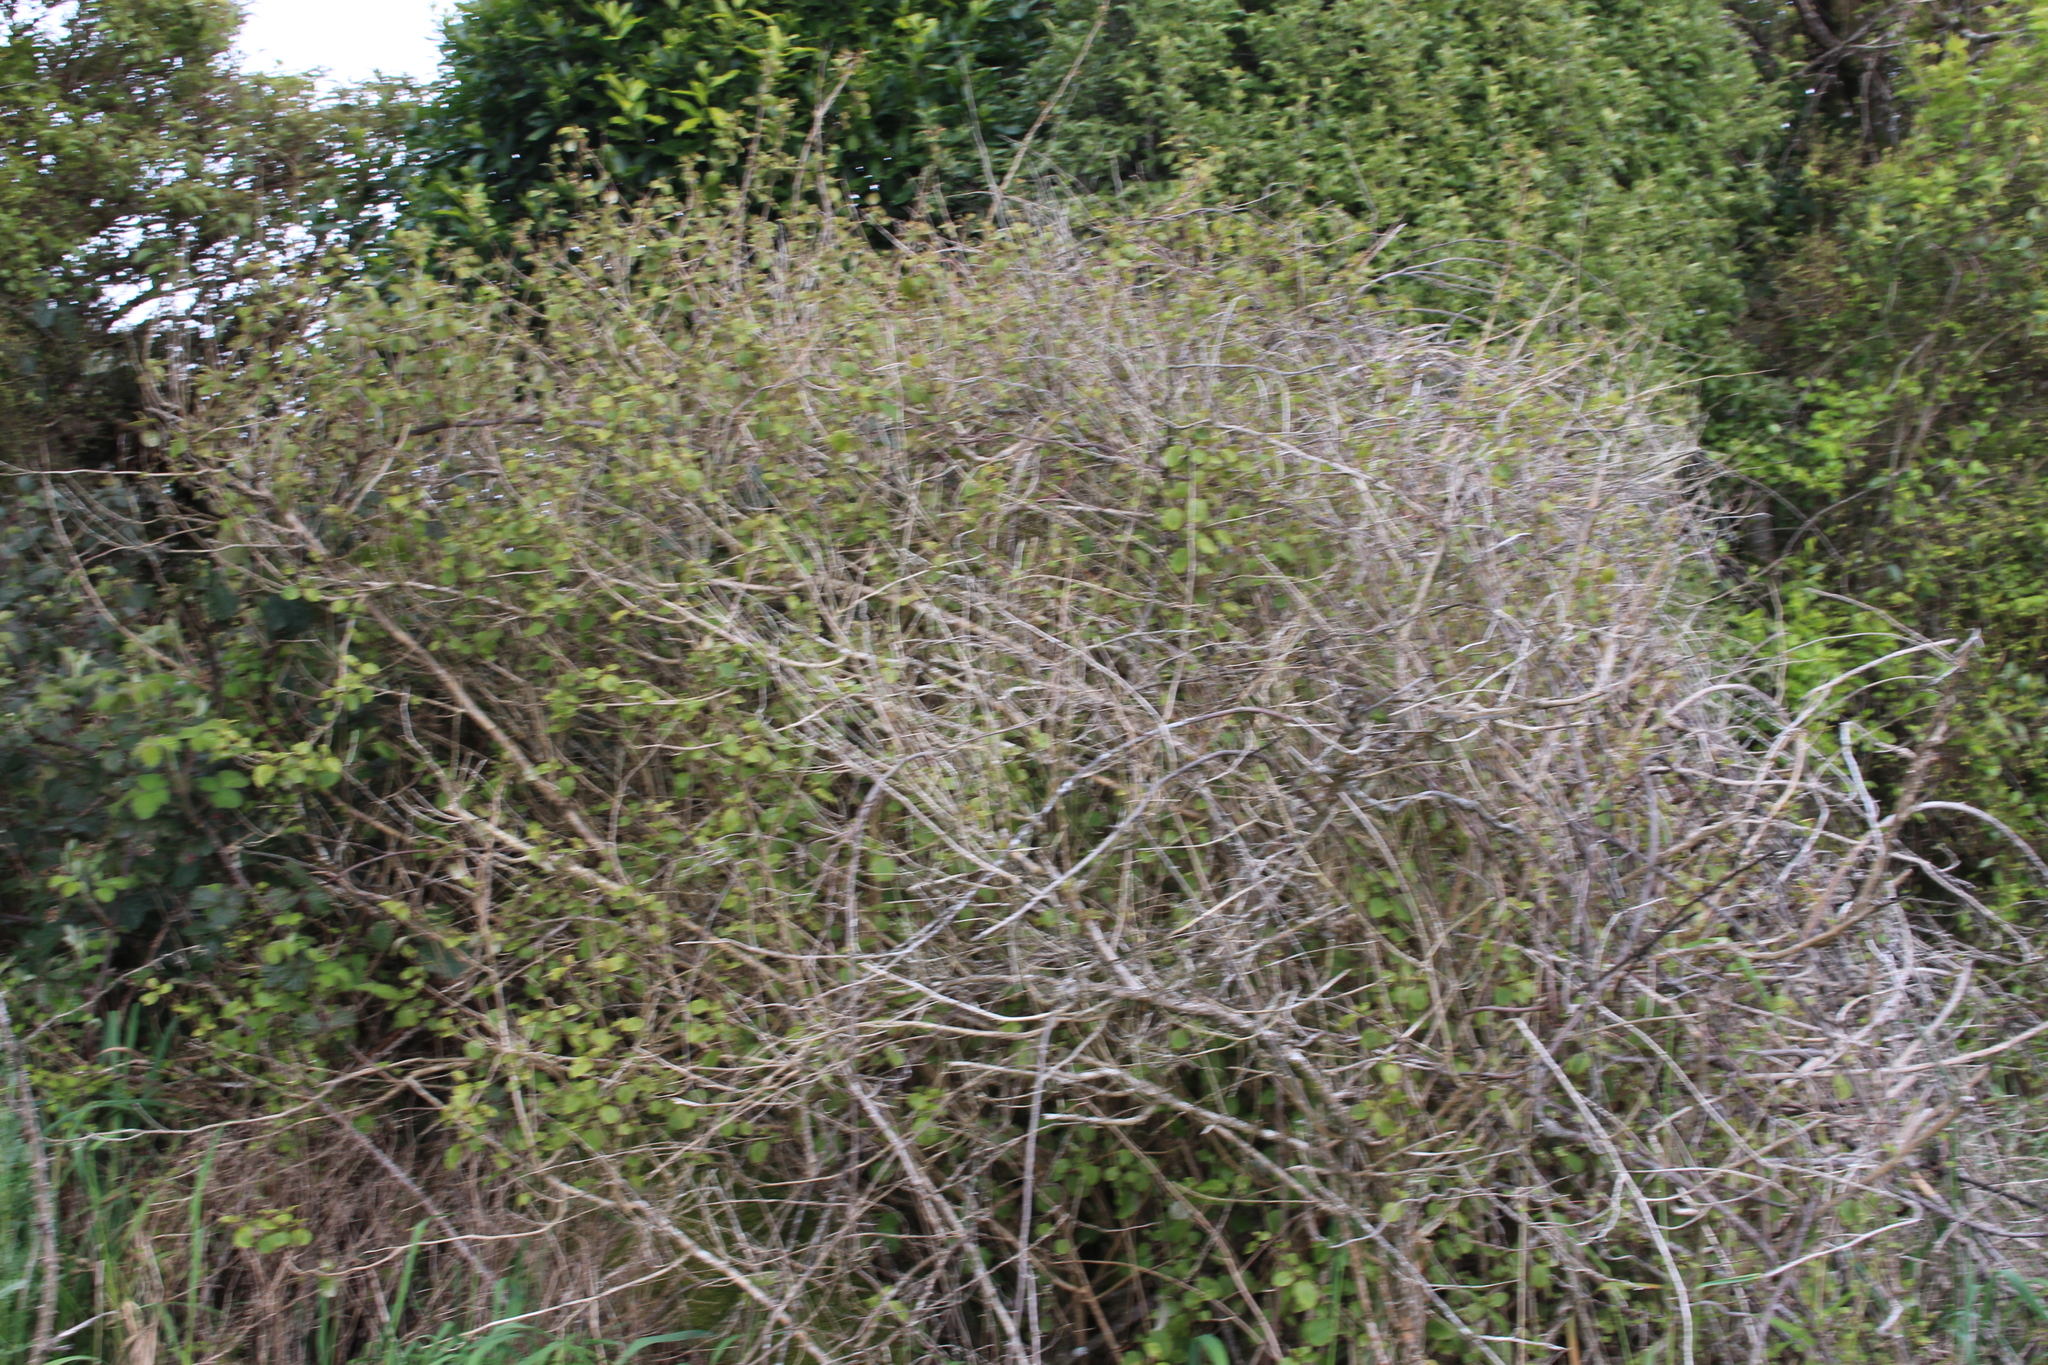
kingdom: Plantae
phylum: Tracheophyta
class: Magnoliopsida
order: Myrtales
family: Onagraceae
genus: Fuchsia
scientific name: Fuchsia colensoi
